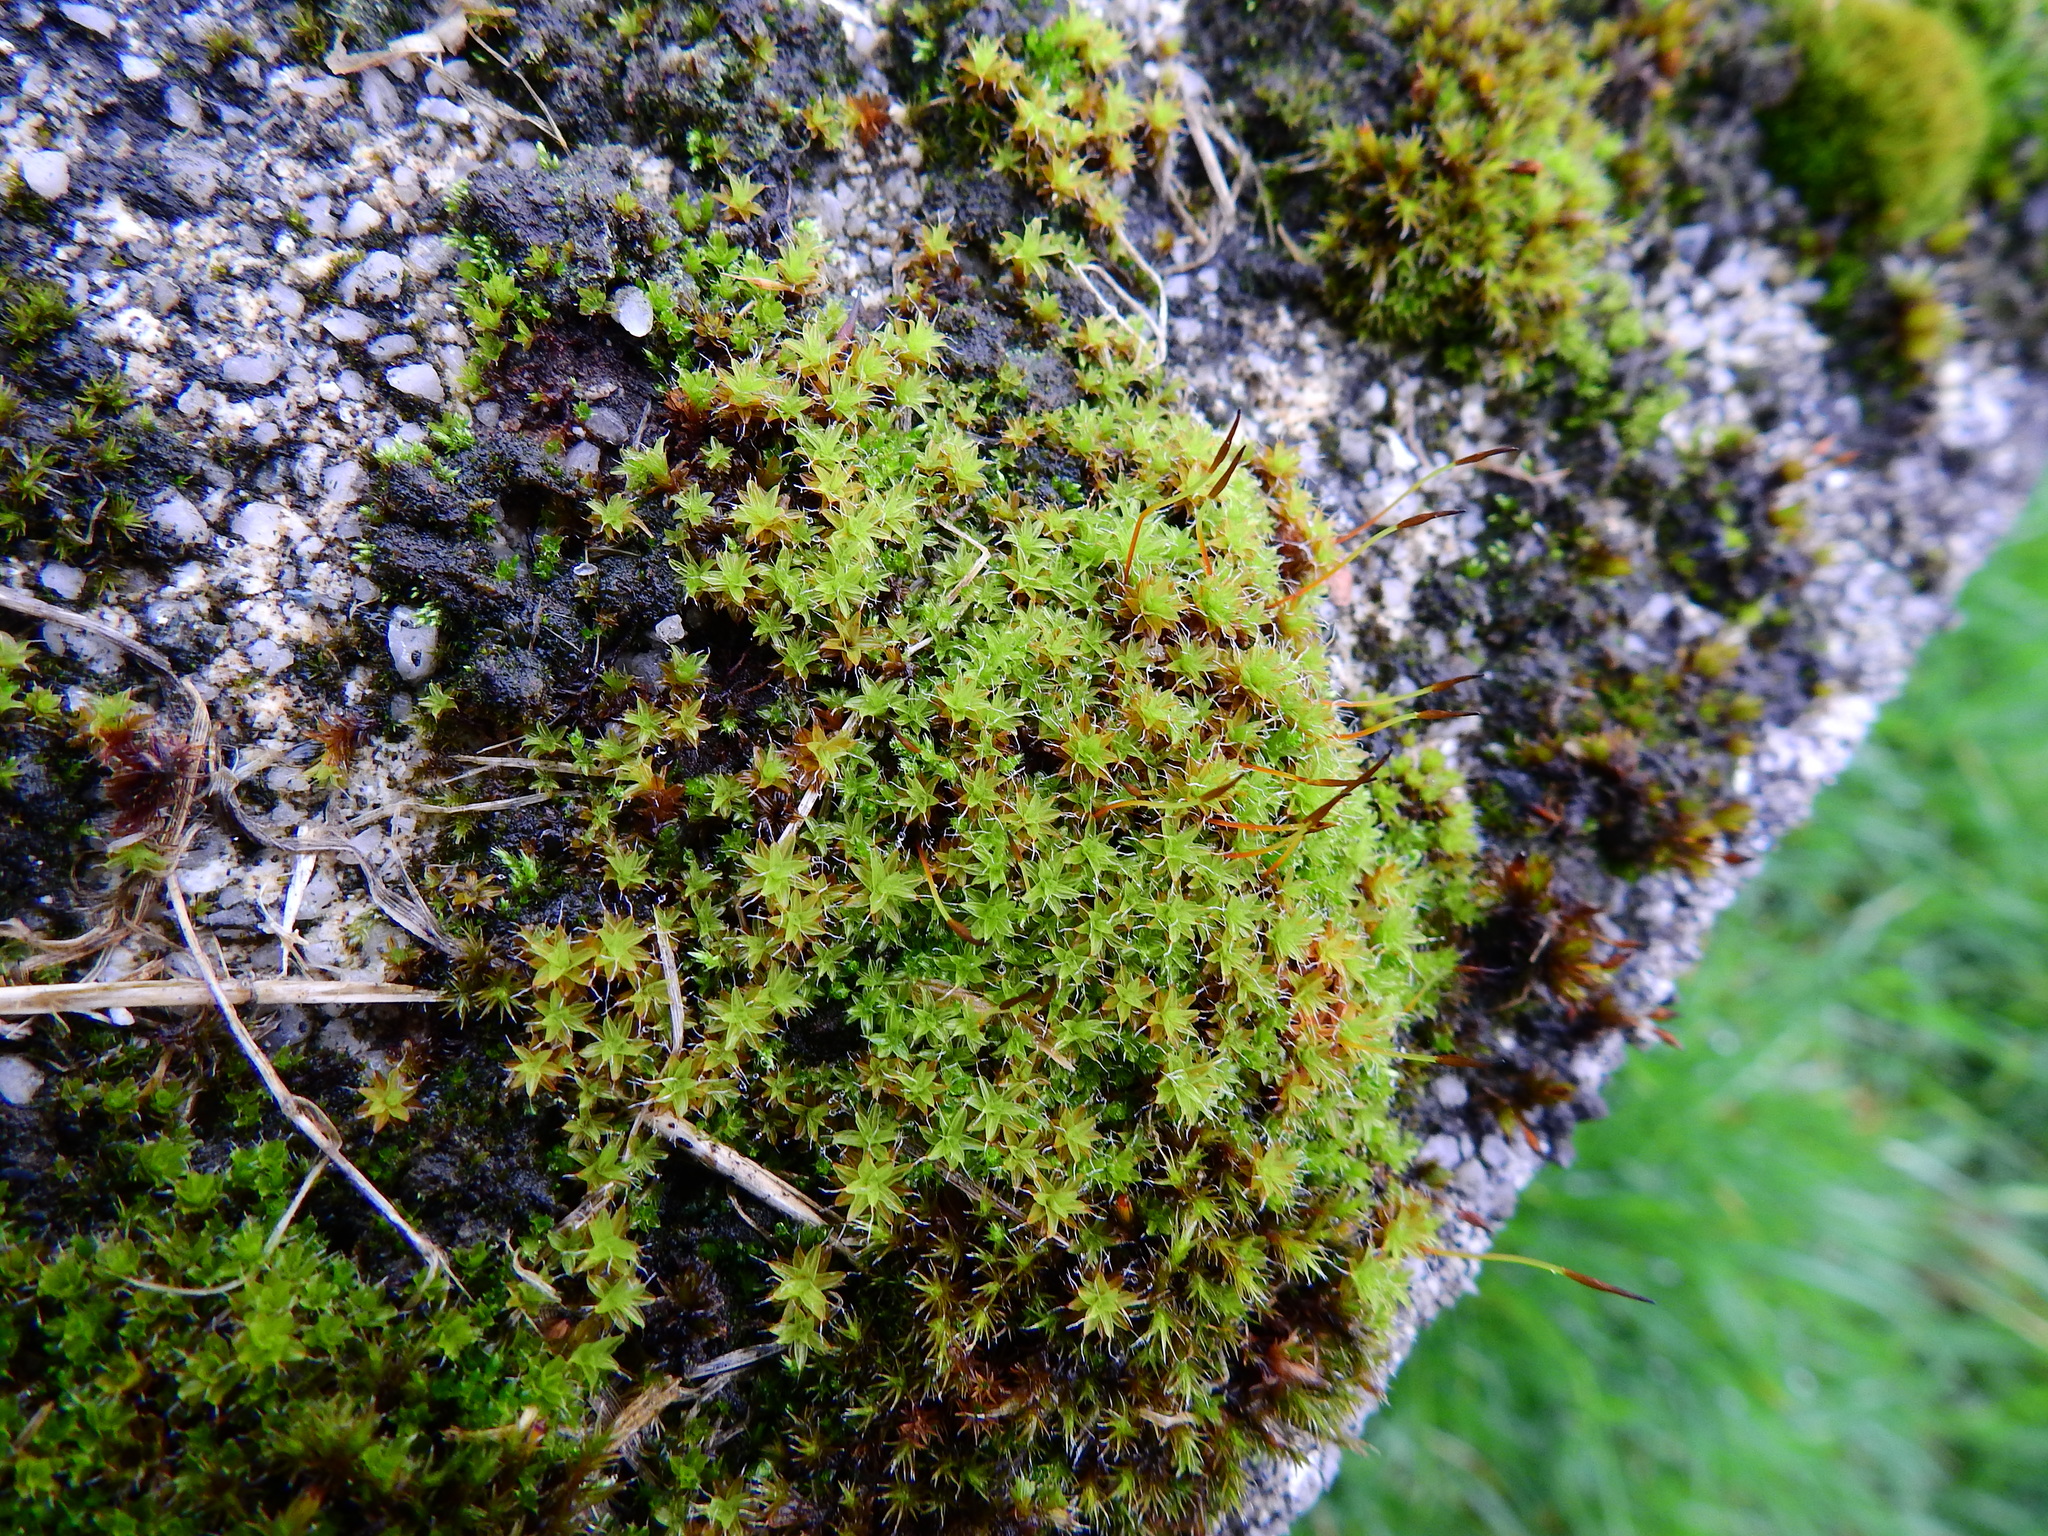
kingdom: Plantae
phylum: Bryophyta
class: Bryopsida
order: Pottiales
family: Pottiaceae
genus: Syntrichia
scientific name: Syntrichia ruralis
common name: Sidewalk screw moss
